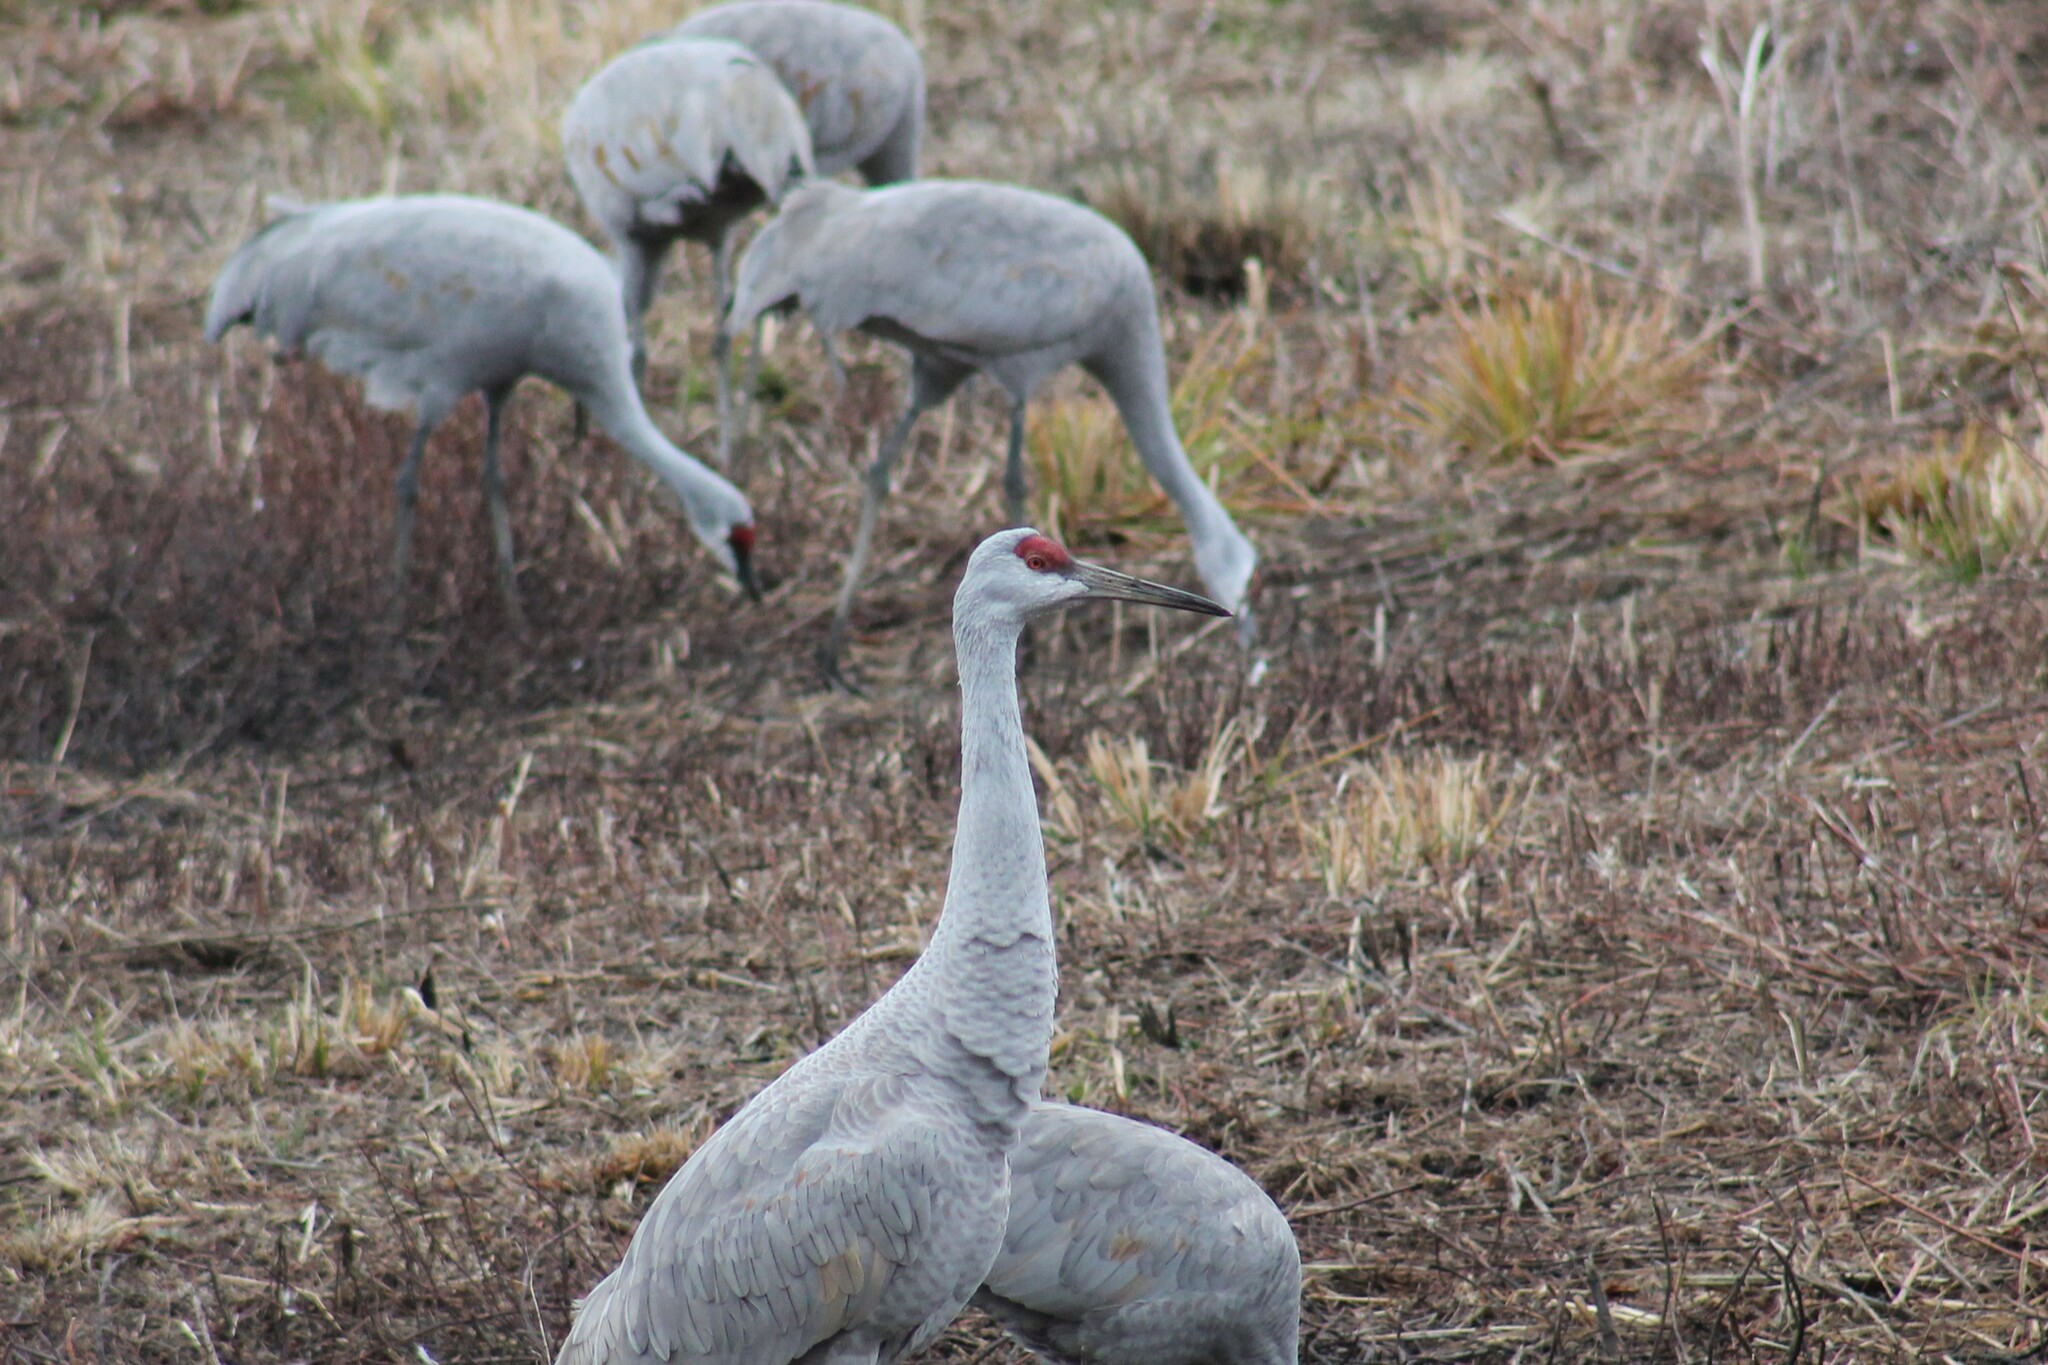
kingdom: Animalia
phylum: Chordata
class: Aves
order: Gruiformes
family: Gruidae
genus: Grus
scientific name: Grus canadensis
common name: Sandhill crane
